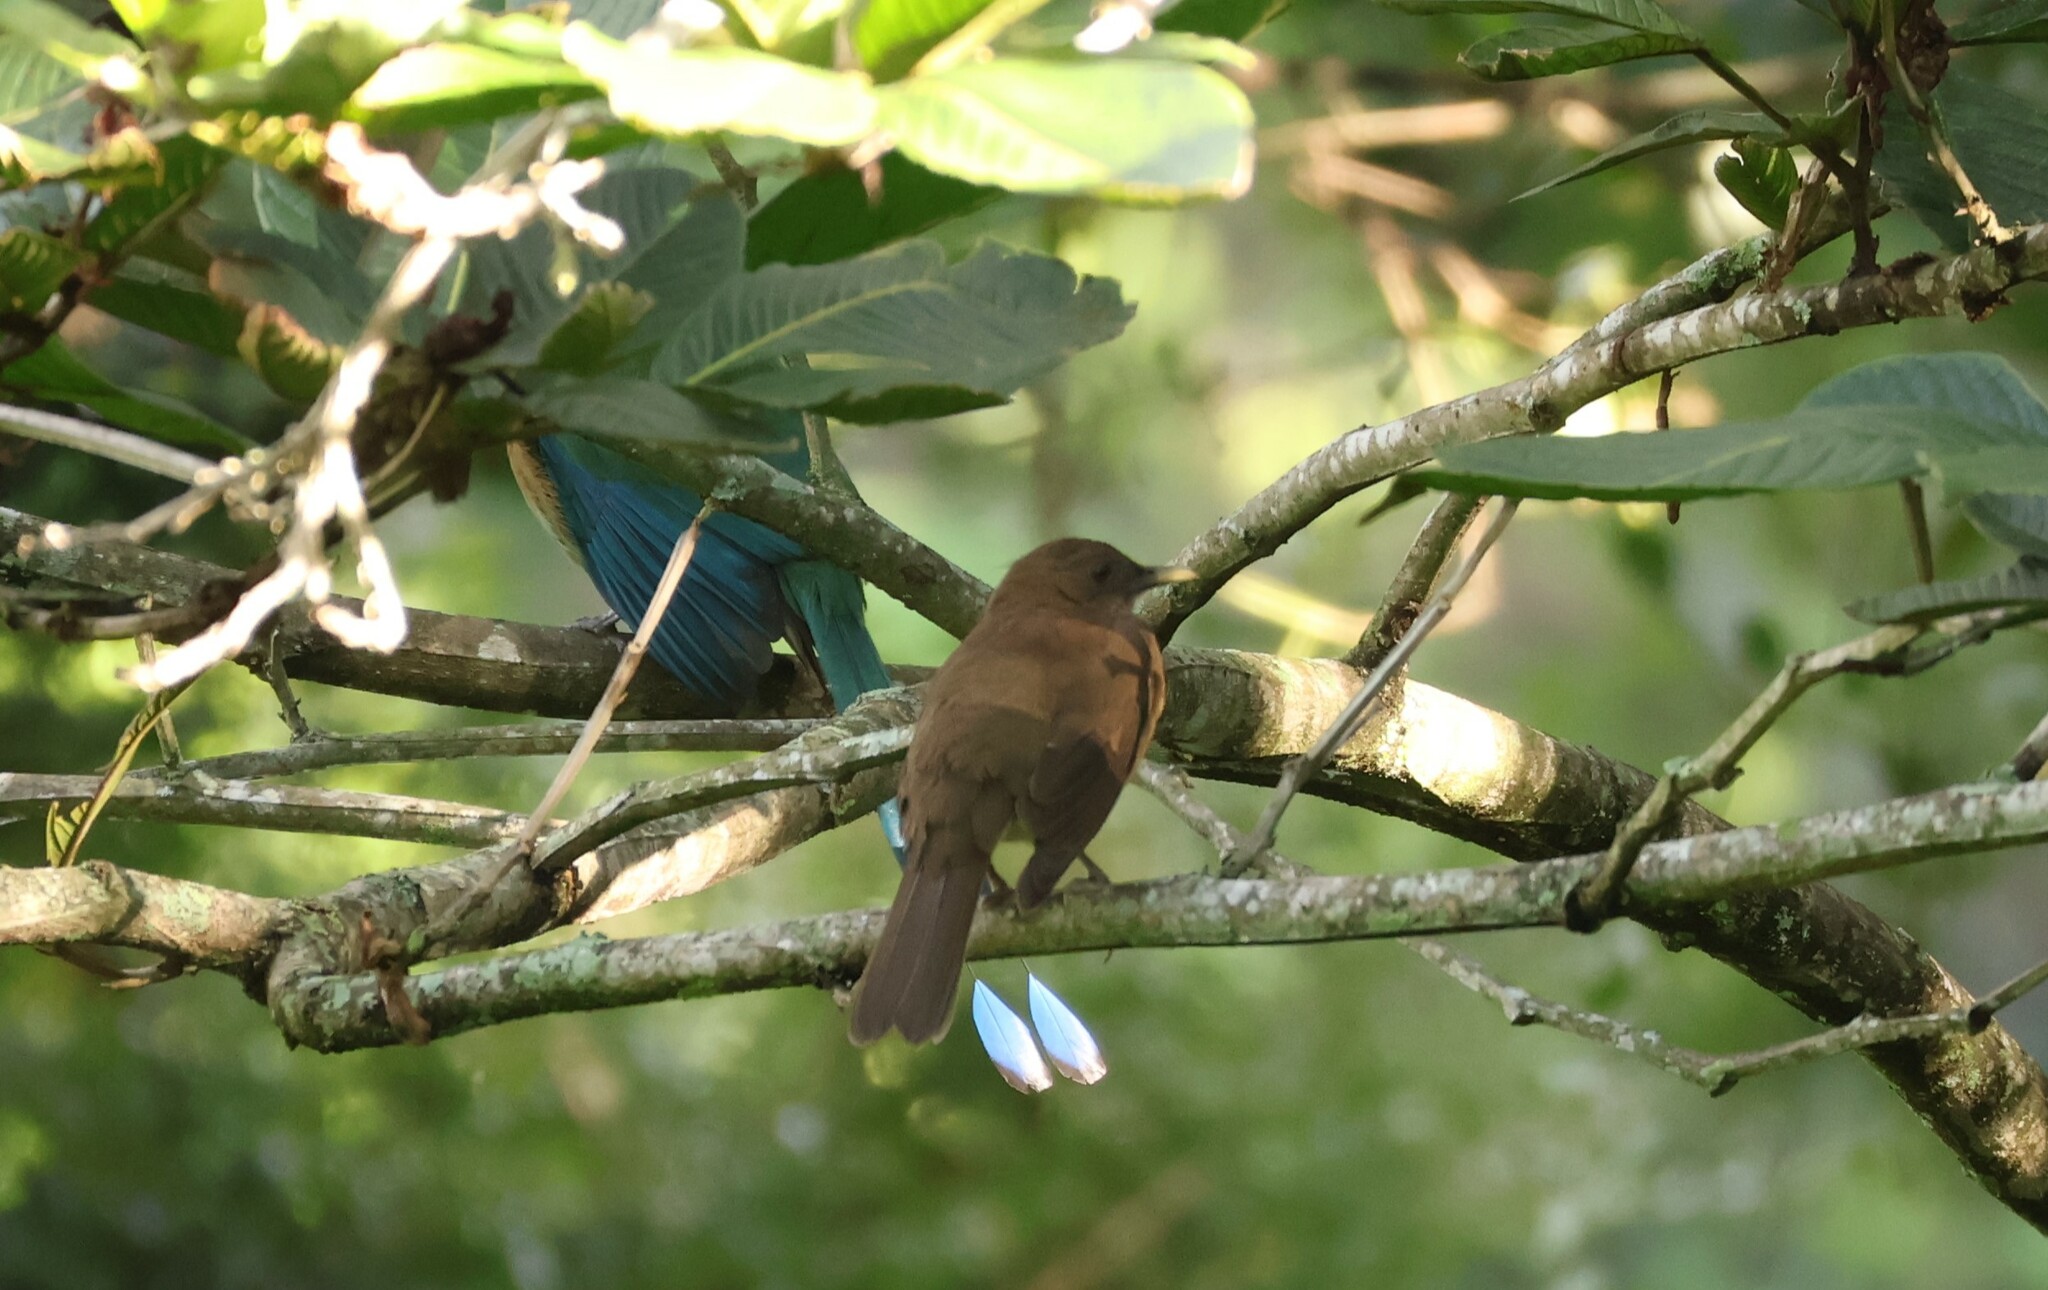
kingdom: Animalia
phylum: Chordata
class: Aves
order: Passeriformes
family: Turdidae
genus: Turdus
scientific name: Turdus grayi
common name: Clay-colored thrush
